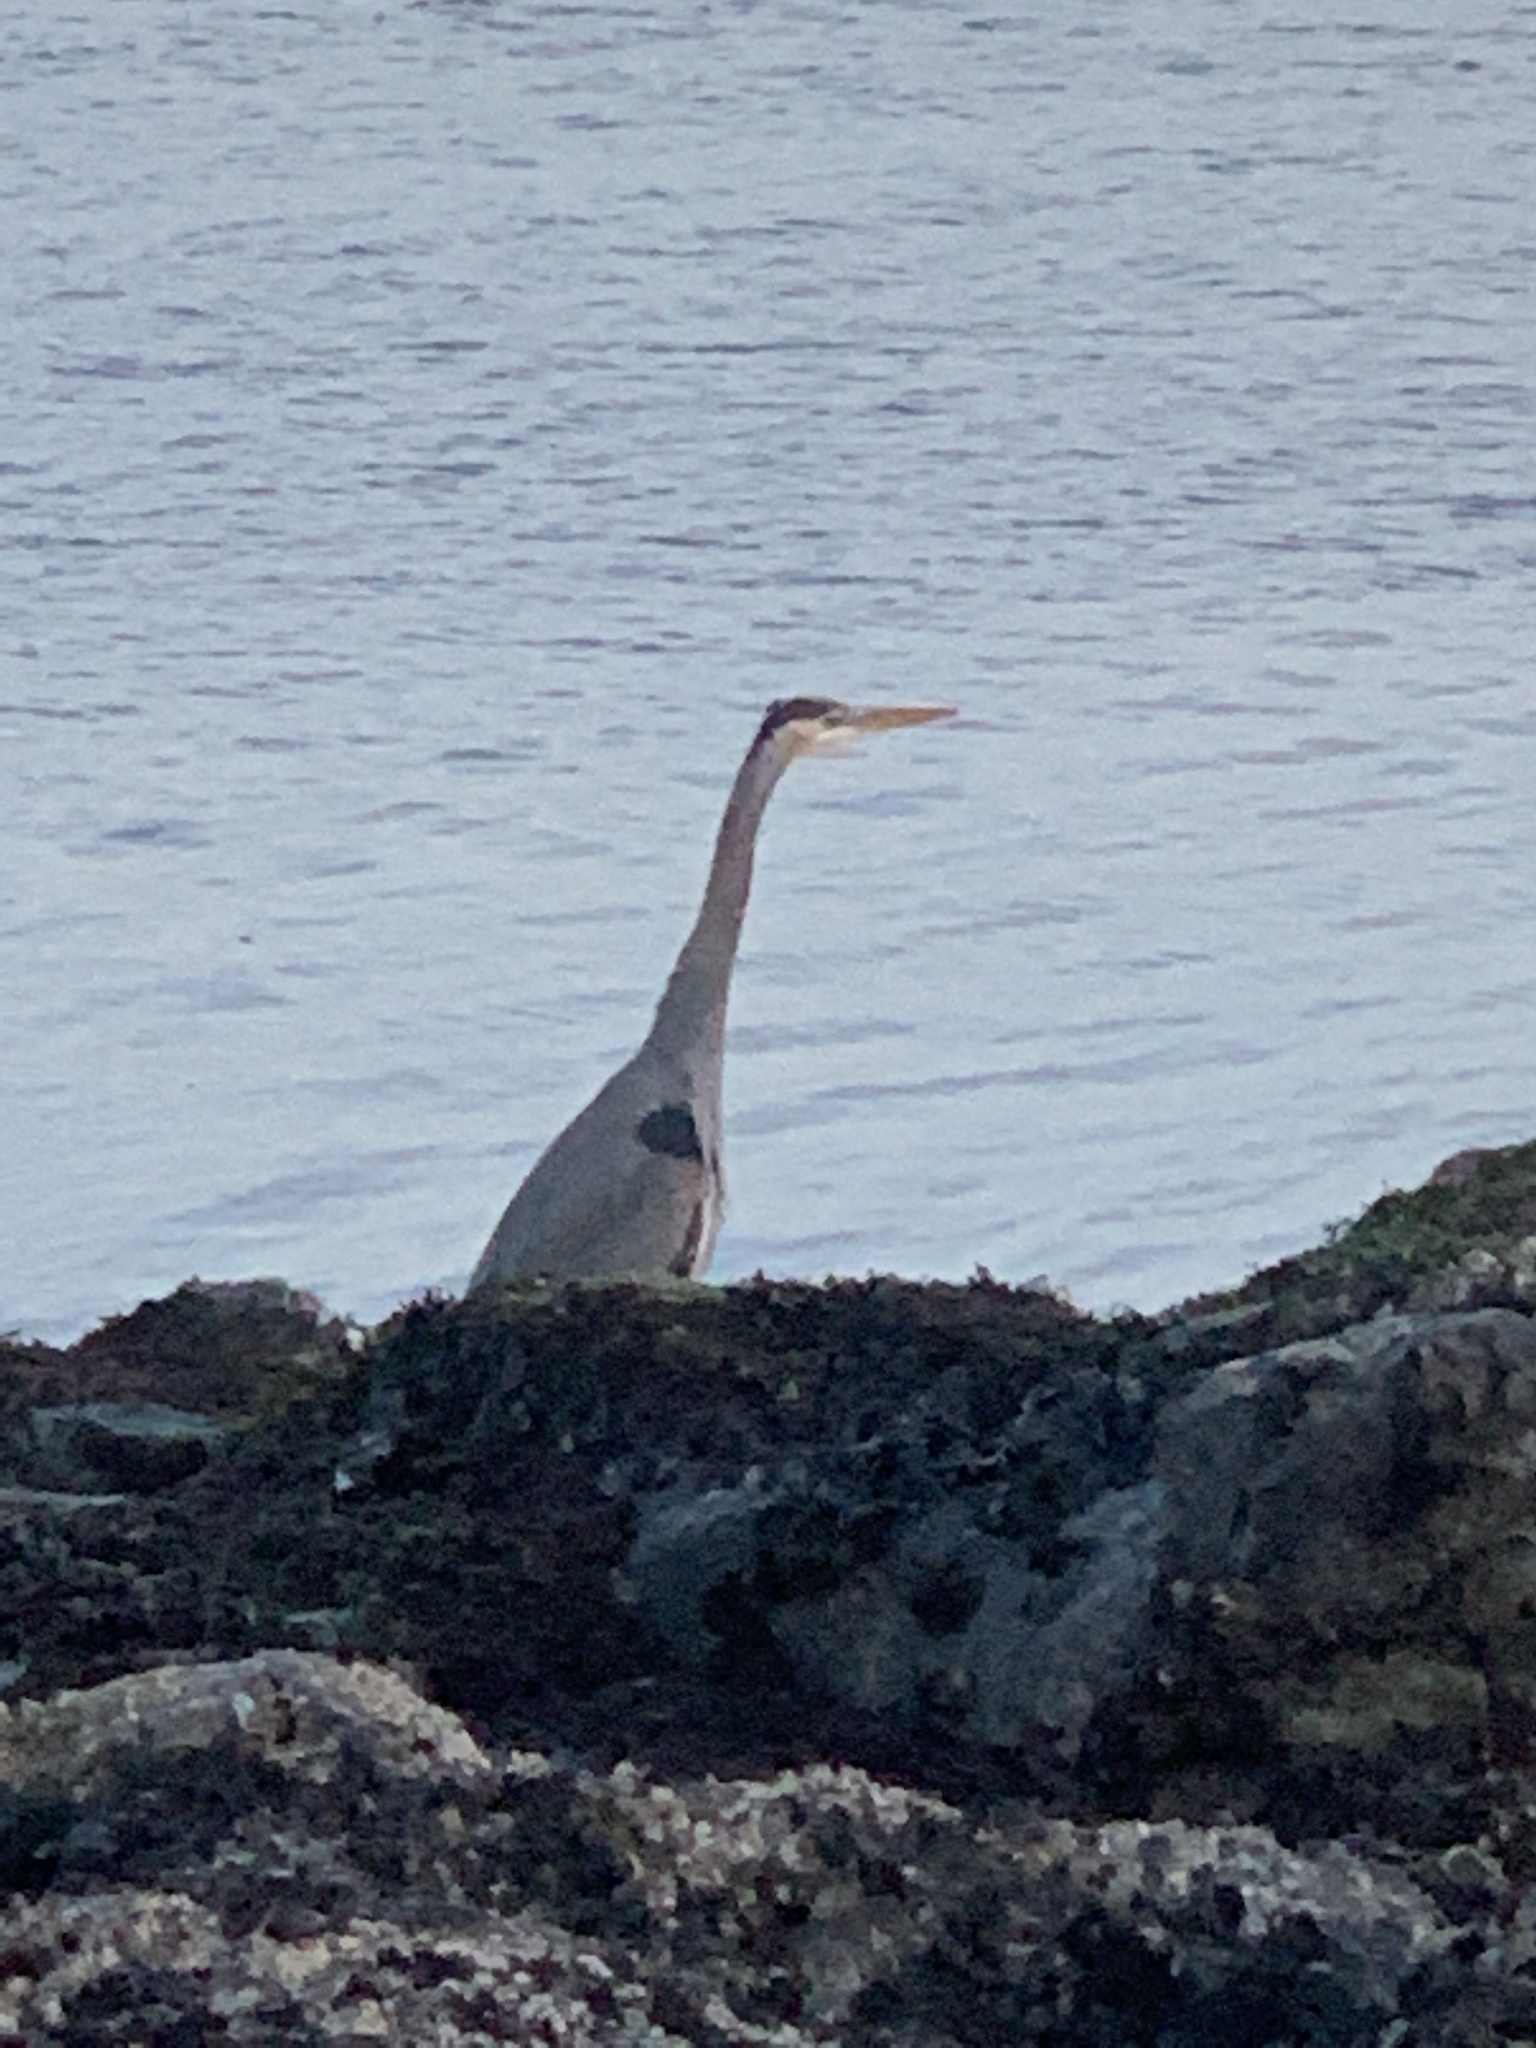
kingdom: Animalia
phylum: Chordata
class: Aves
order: Pelecaniformes
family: Ardeidae
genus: Ardea
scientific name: Ardea herodias
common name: Great blue heron
